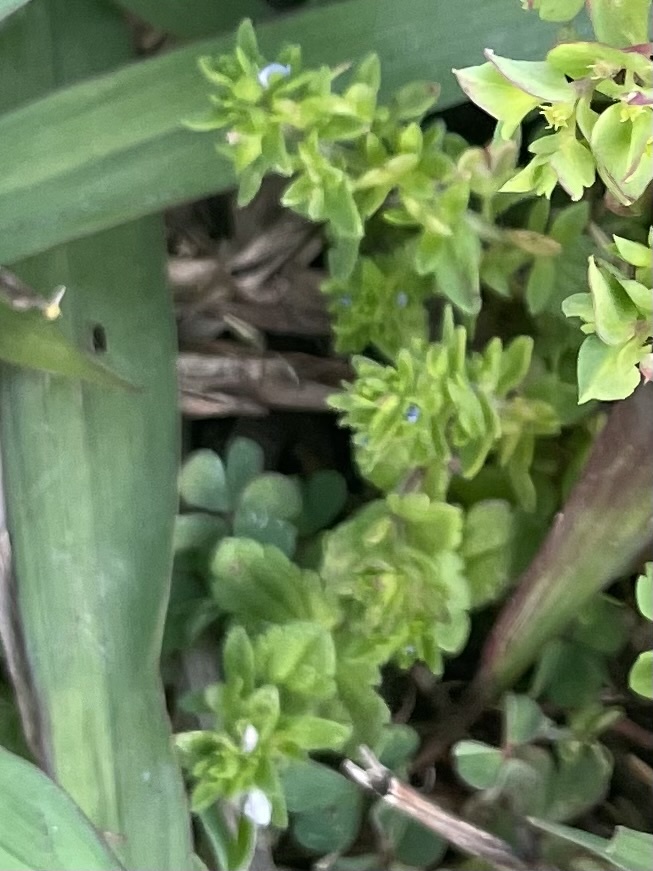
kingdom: Plantae
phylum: Tracheophyta
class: Magnoliopsida
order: Lamiales
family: Plantaginaceae
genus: Veronica
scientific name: Veronica arvensis
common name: Corn speedwell
